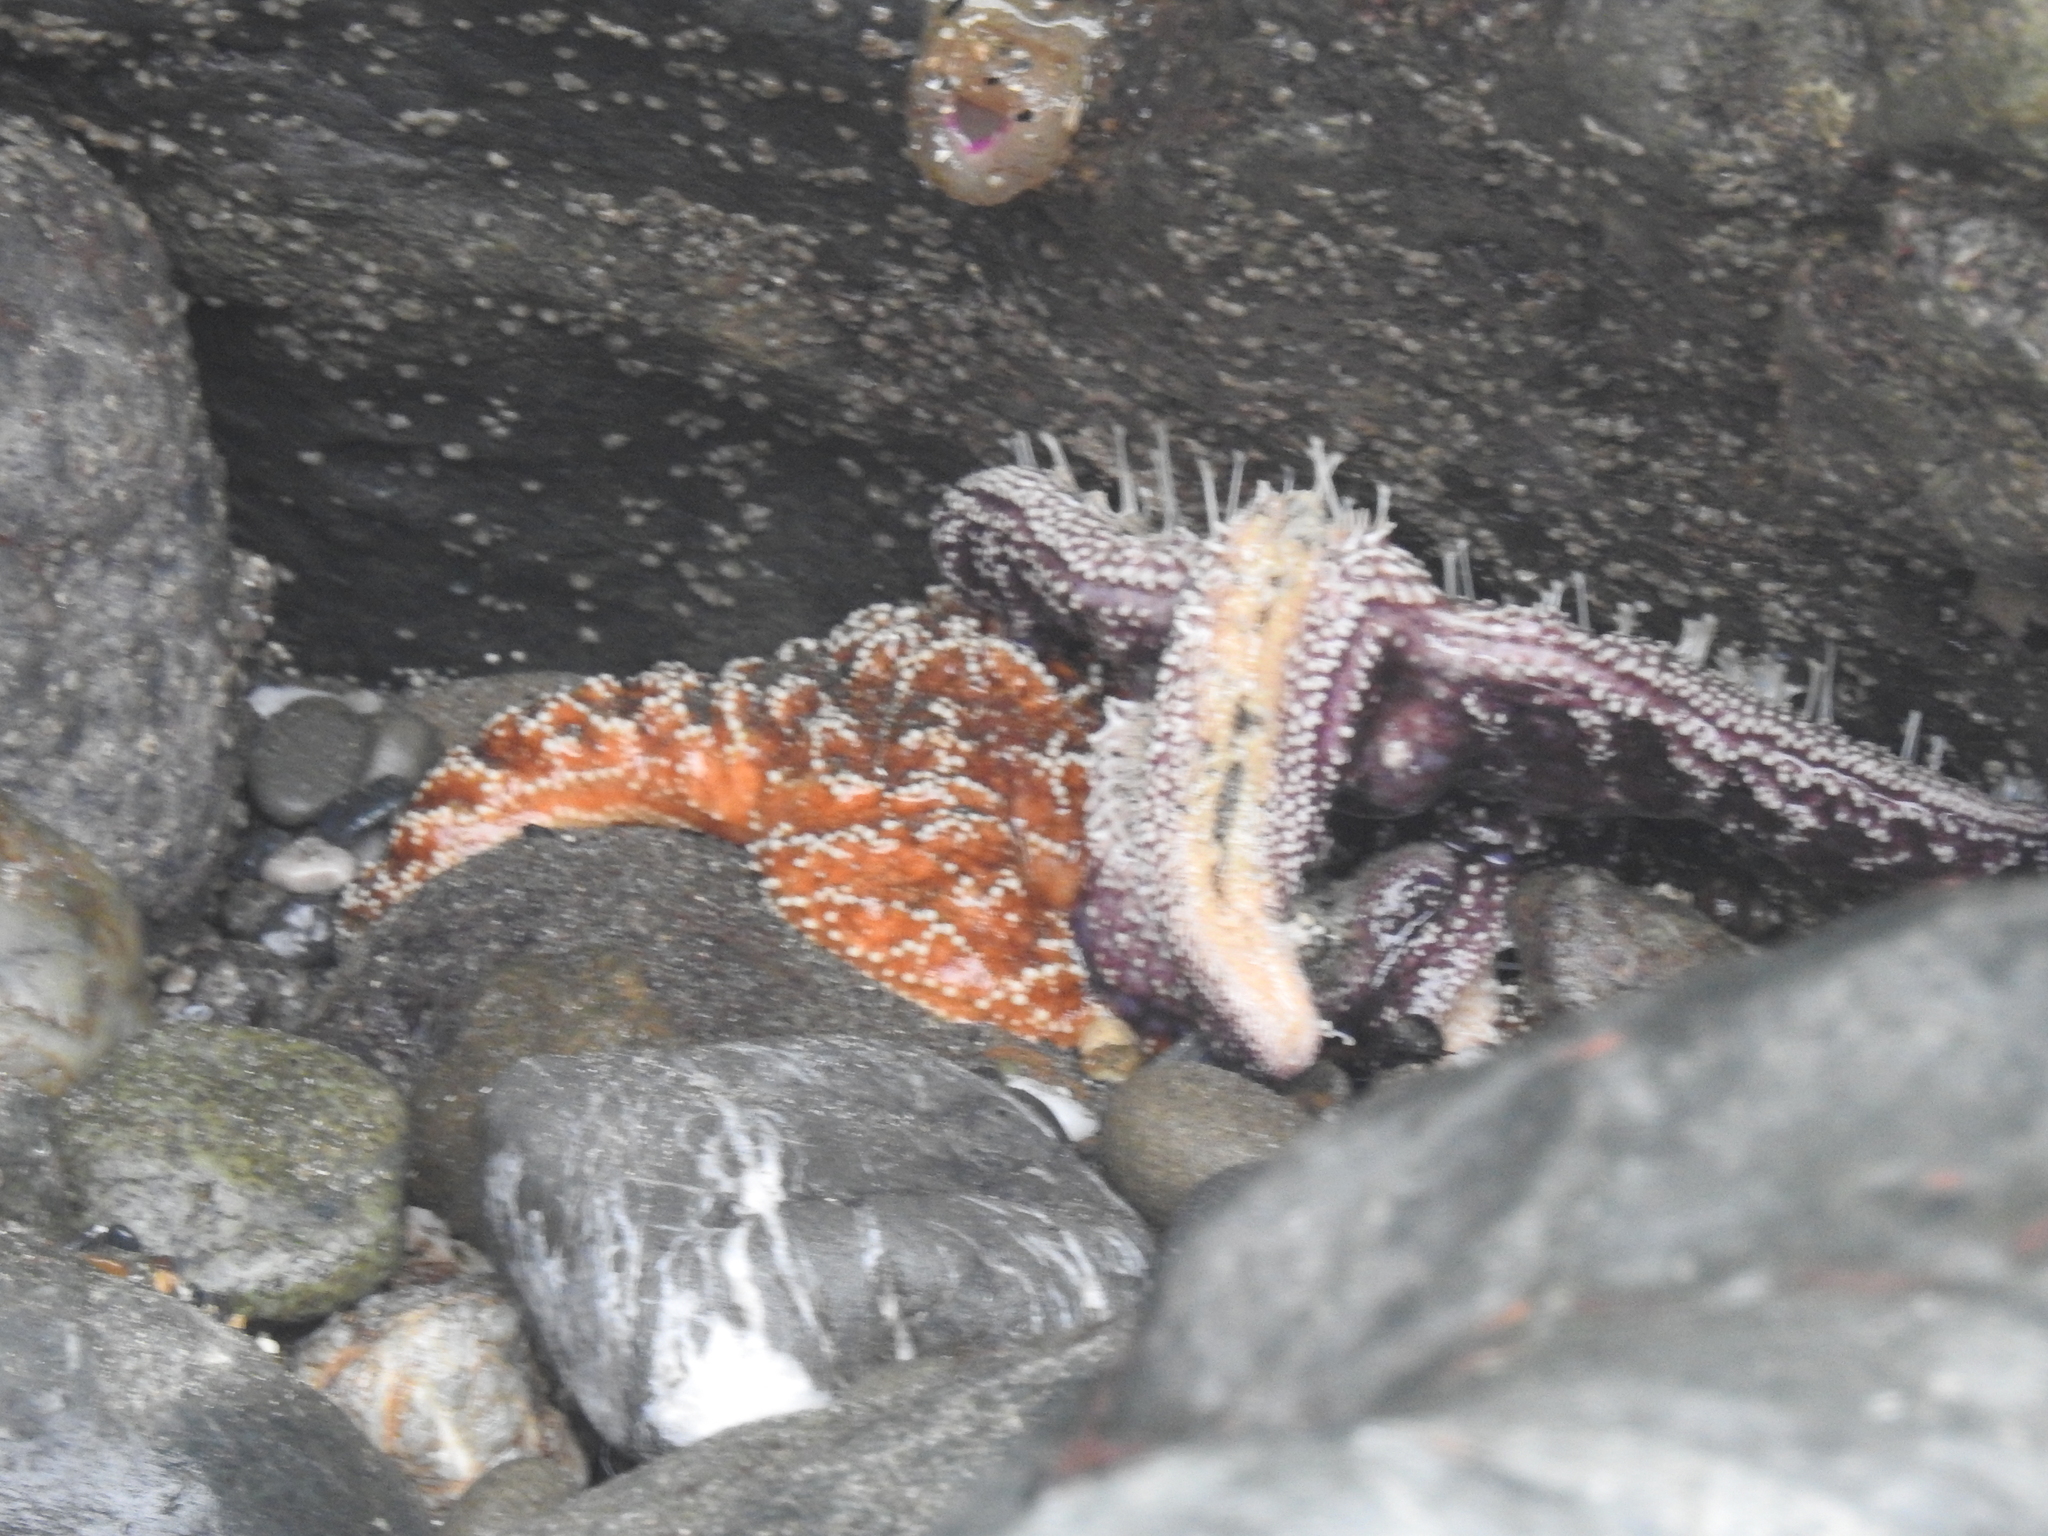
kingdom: Animalia
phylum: Echinodermata
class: Asteroidea
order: Forcipulatida
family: Asteriidae
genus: Pisaster
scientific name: Pisaster ochraceus
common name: Ochre stars
